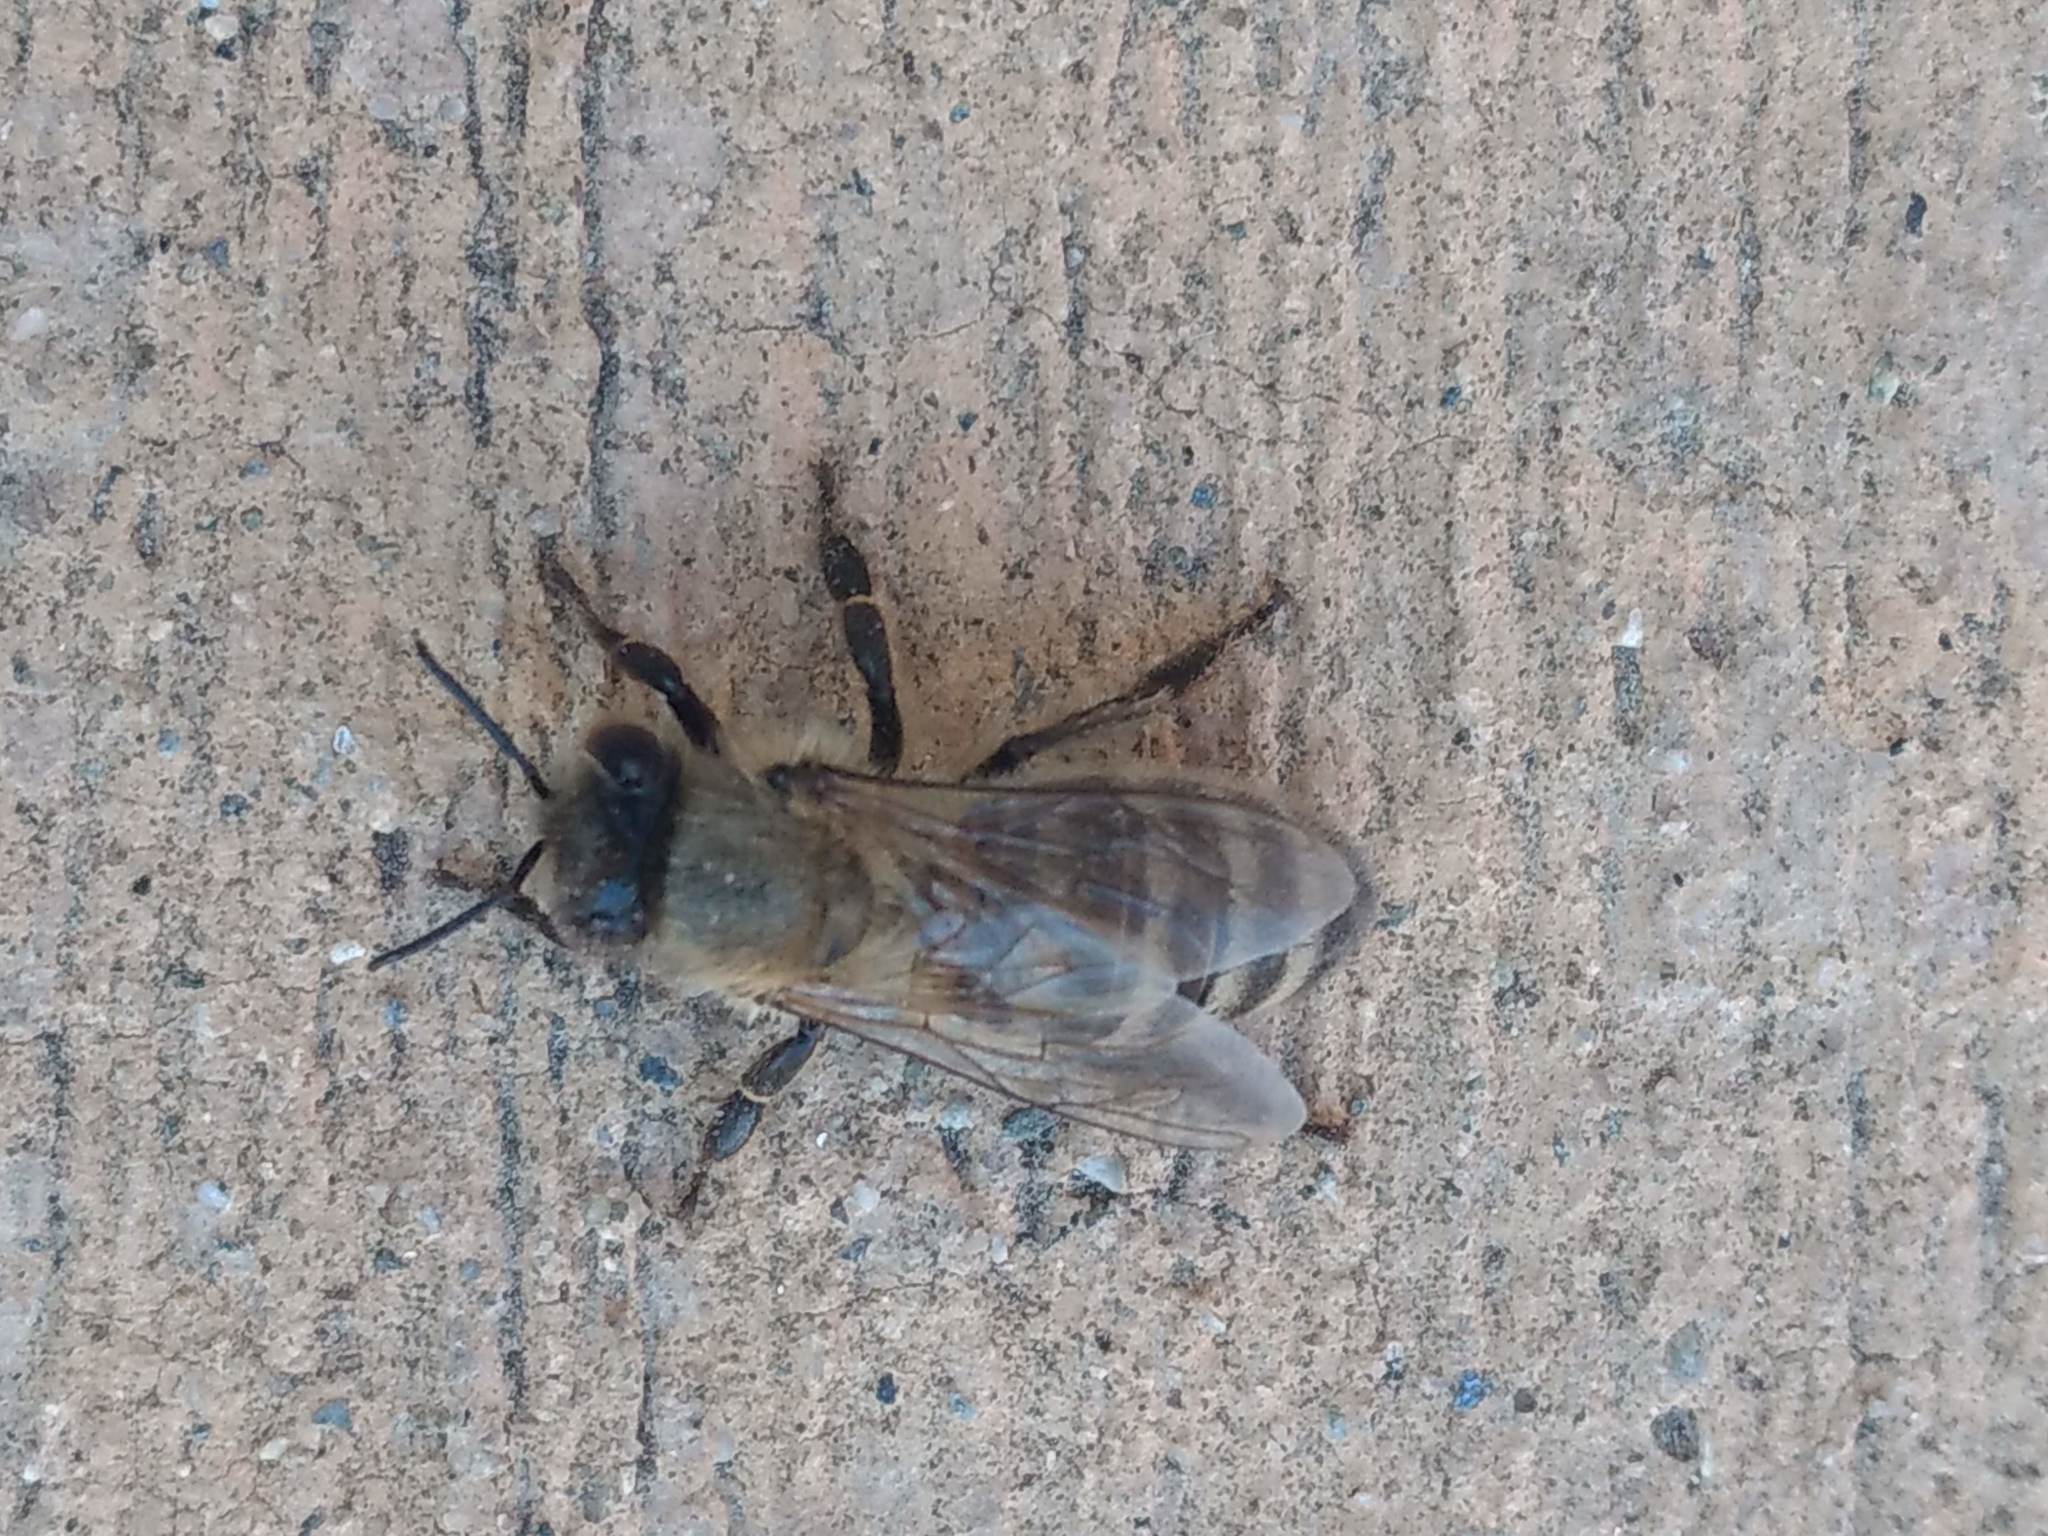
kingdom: Animalia
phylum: Arthropoda
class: Insecta
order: Hymenoptera
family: Apidae
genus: Apis
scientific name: Apis mellifera
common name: Honey bee
